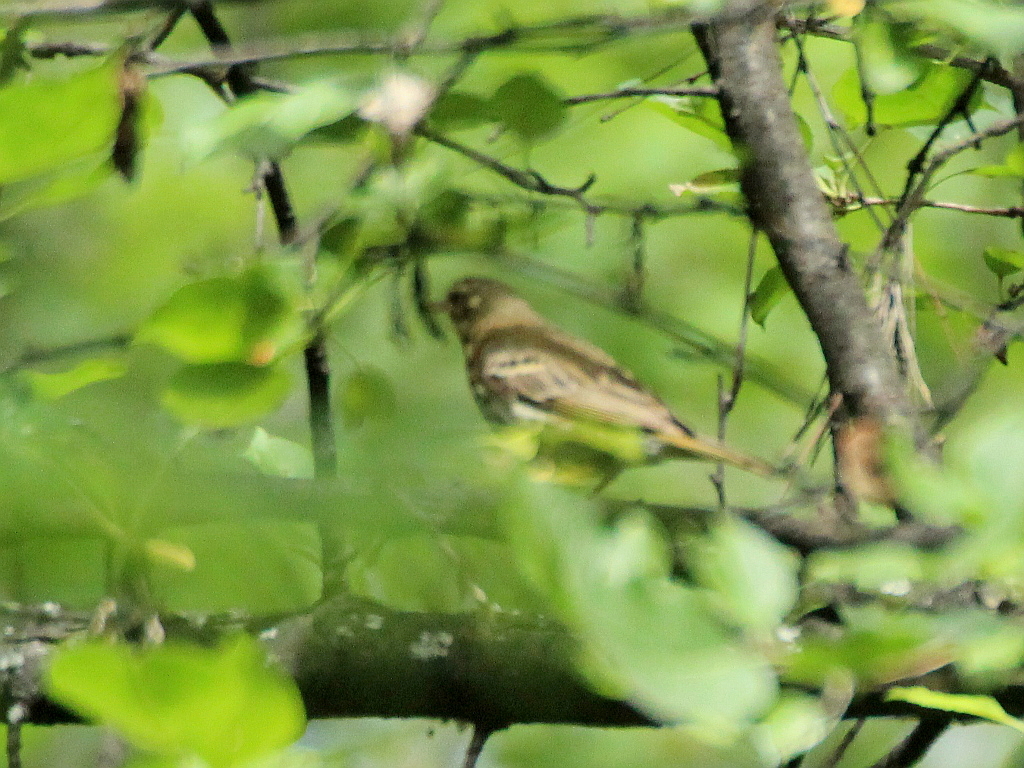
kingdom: Animalia
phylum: Chordata
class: Aves
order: Passeriformes
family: Motacillidae
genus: Anthus
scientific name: Anthus hodgsoni
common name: Olive-backed pipit
